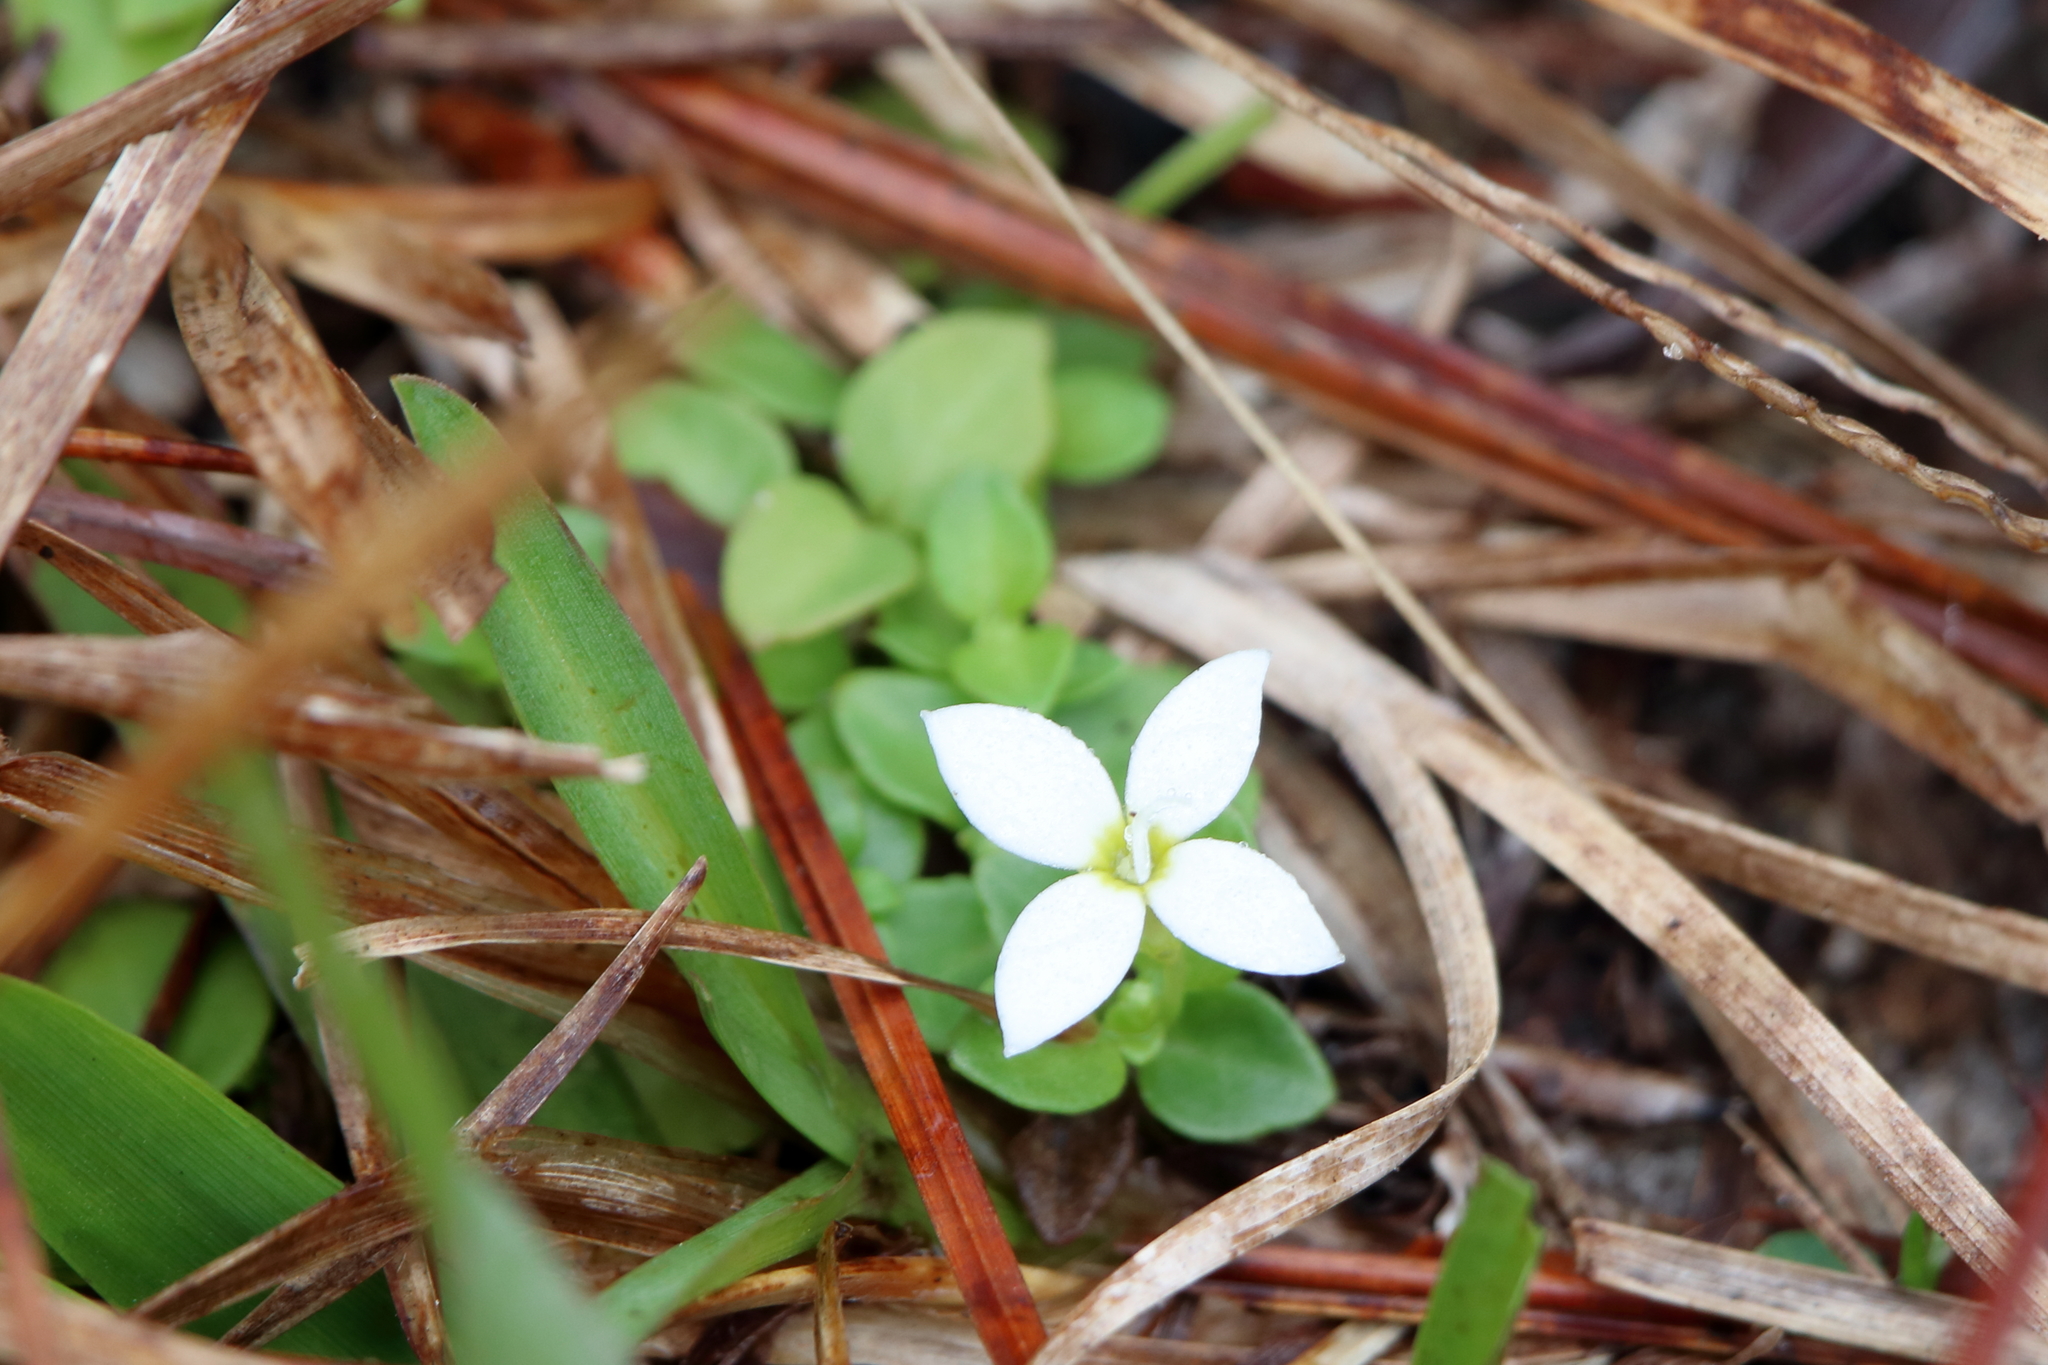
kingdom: Plantae
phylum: Tracheophyta
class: Magnoliopsida
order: Gentianales
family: Rubiaceae
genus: Houstonia
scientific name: Houstonia procumbens
